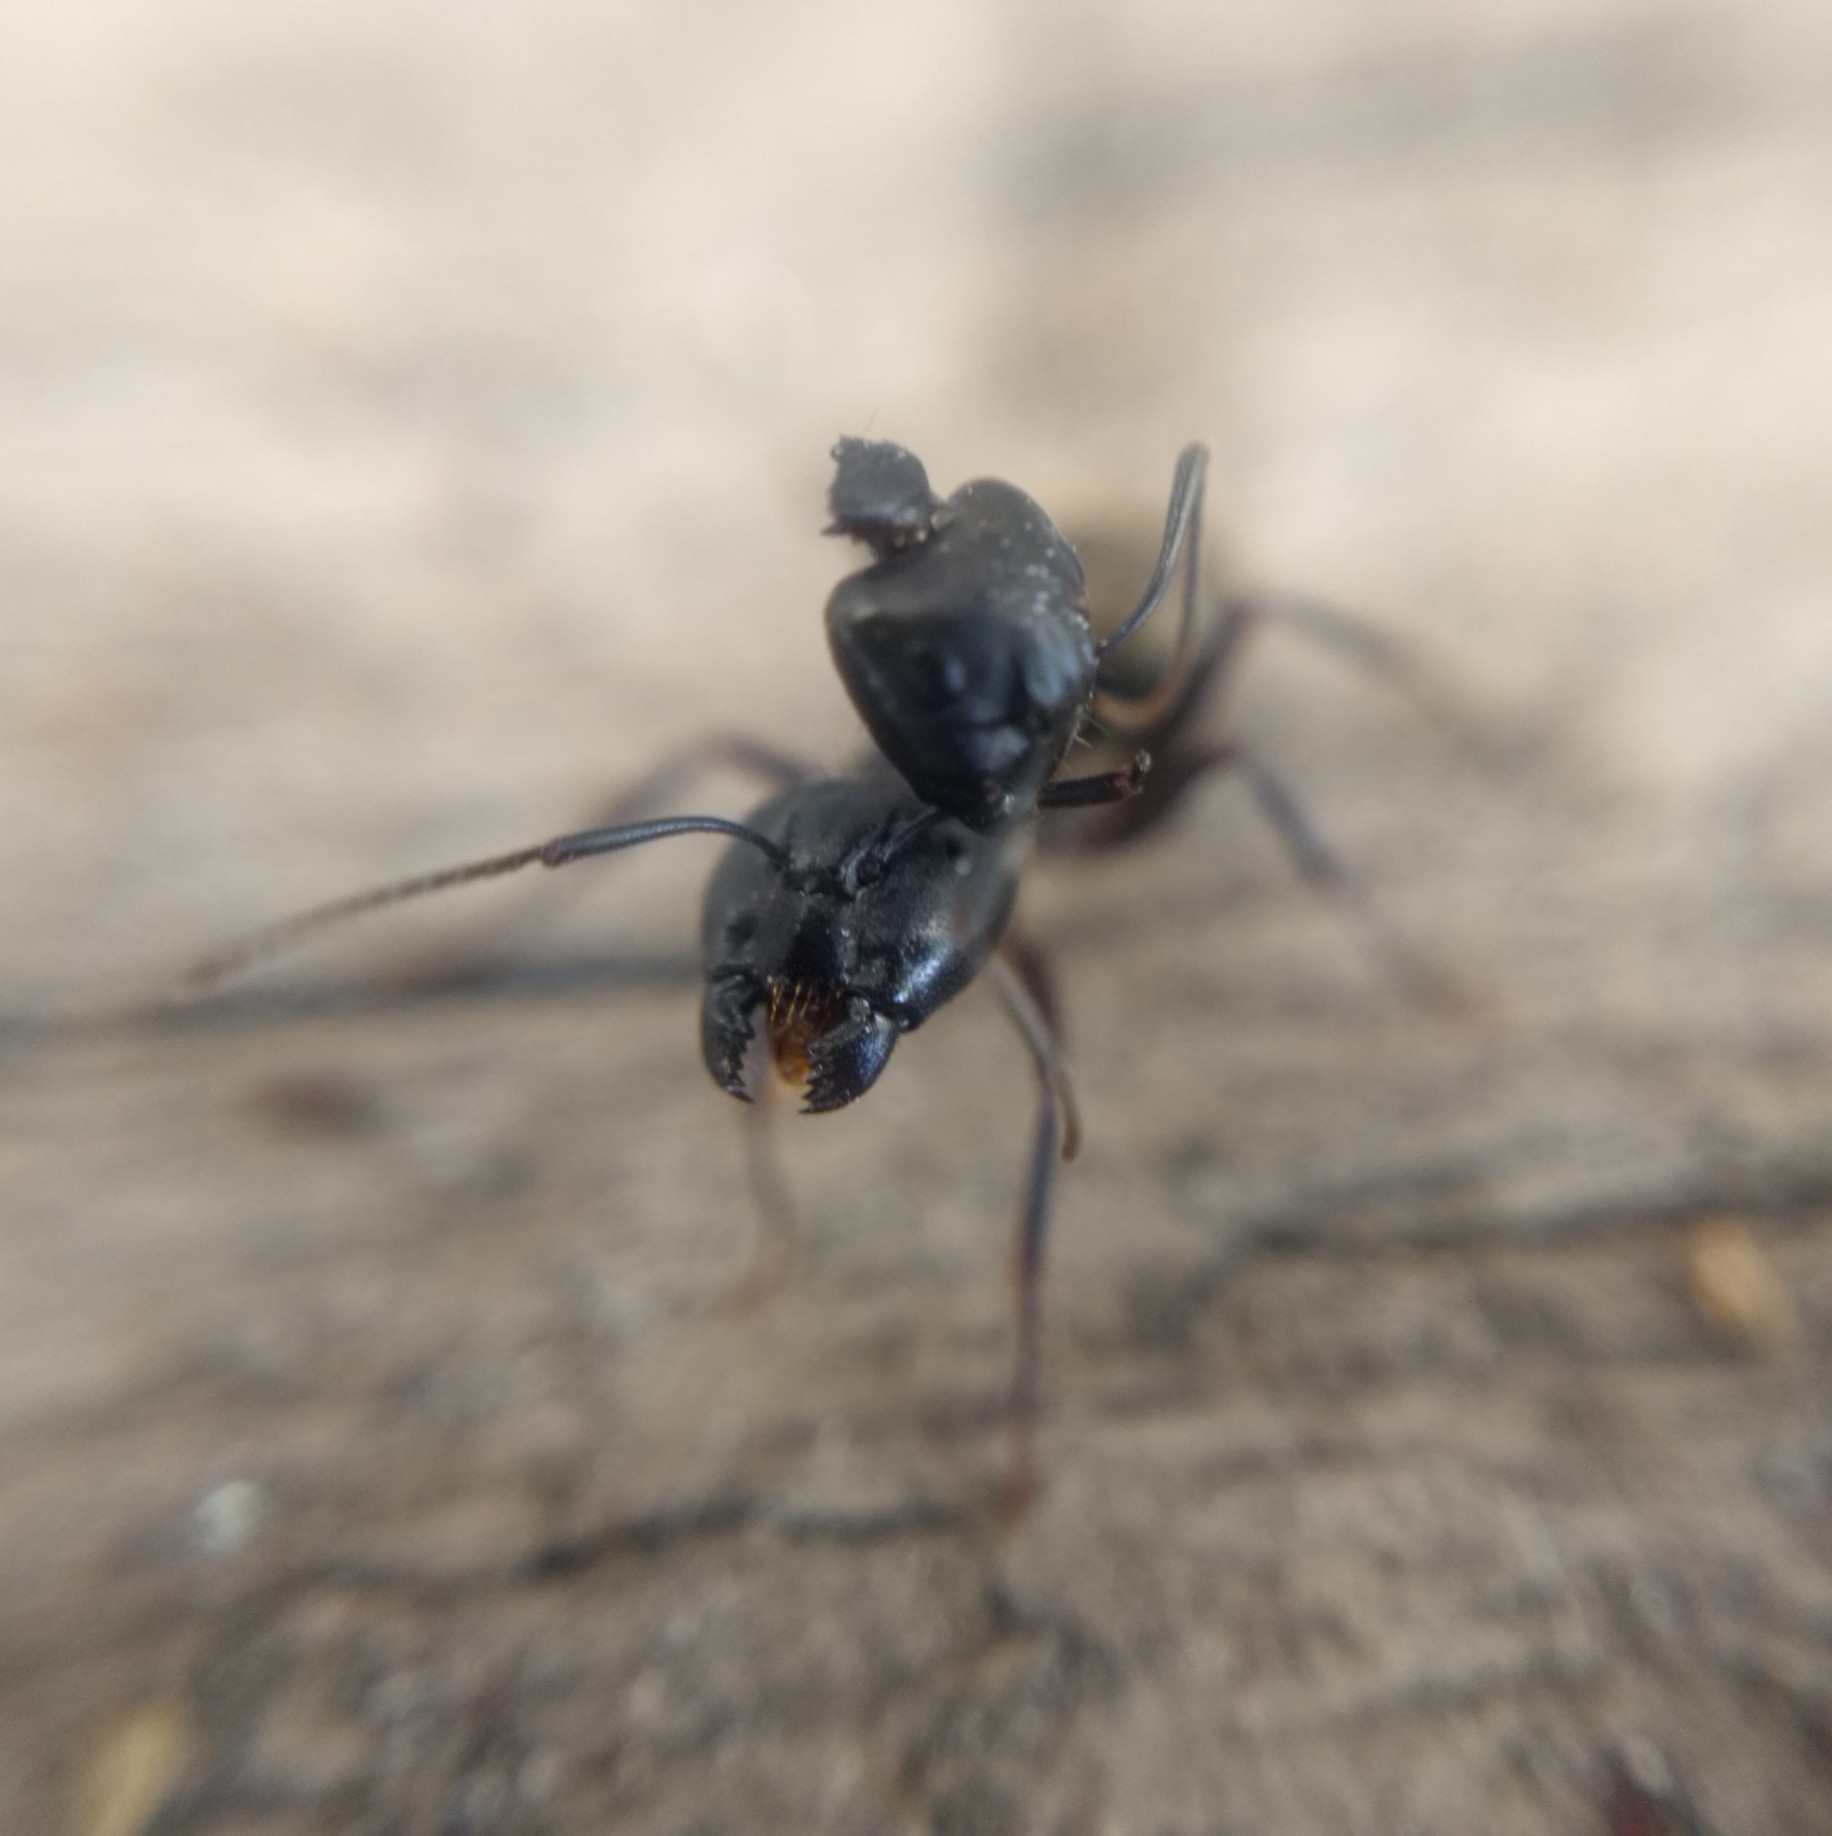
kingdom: Animalia
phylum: Arthropoda
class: Insecta
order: Hymenoptera
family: Formicidae
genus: Camponotus
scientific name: Camponotus pennsylvanicus
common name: Black carpenter ant
